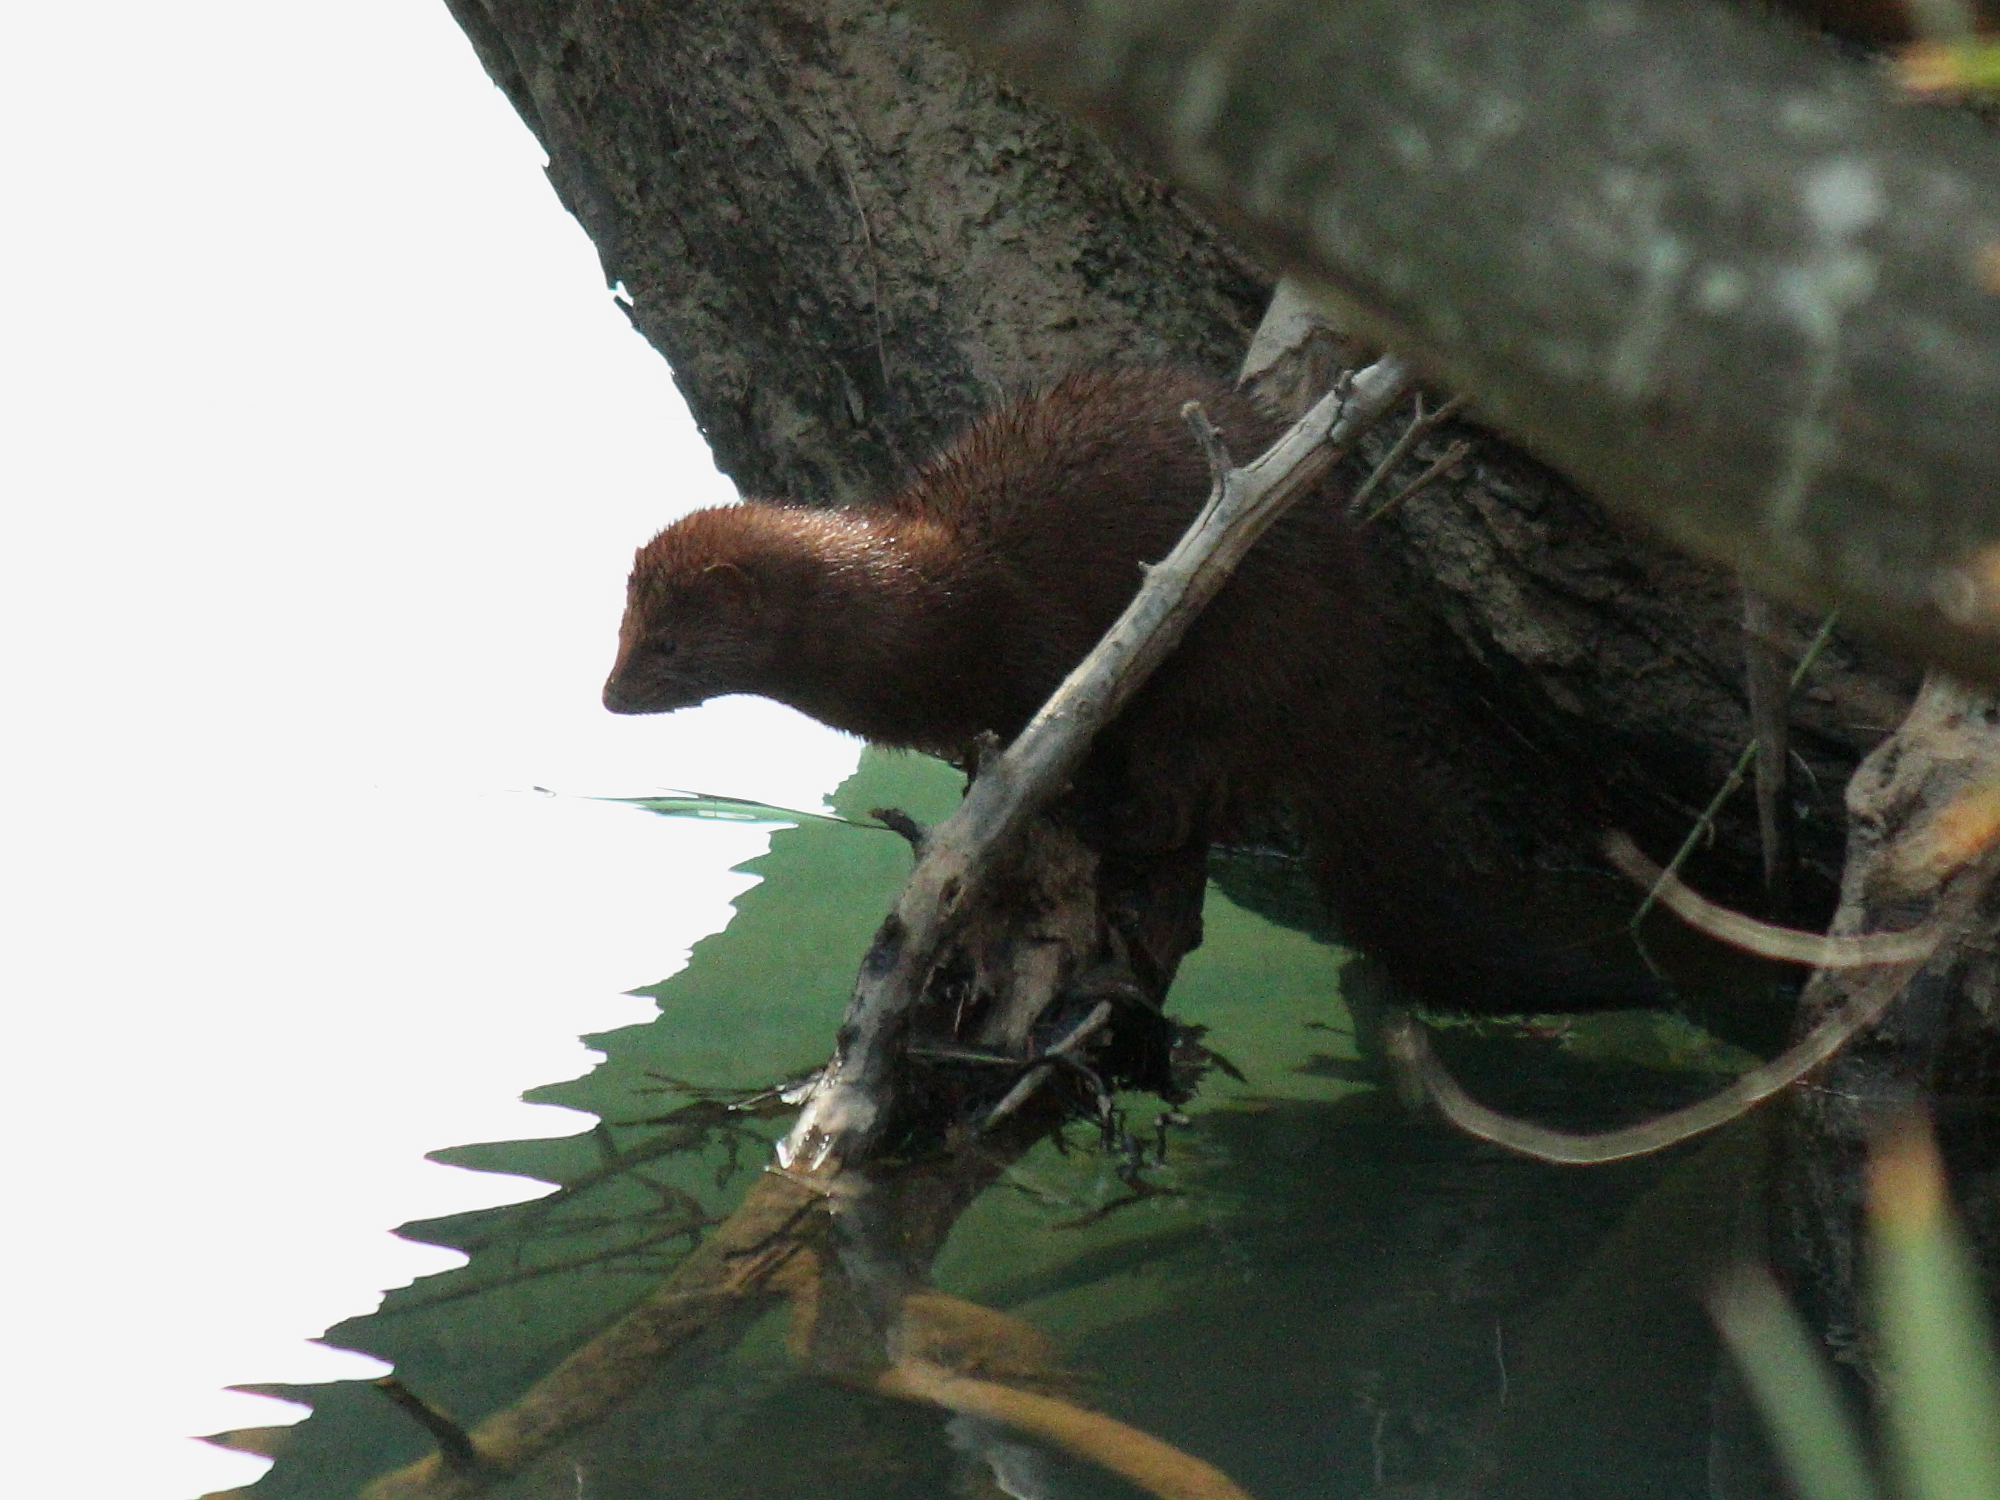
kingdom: Animalia
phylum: Chordata
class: Mammalia
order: Carnivora
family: Mustelidae
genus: Mustela
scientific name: Mustela
